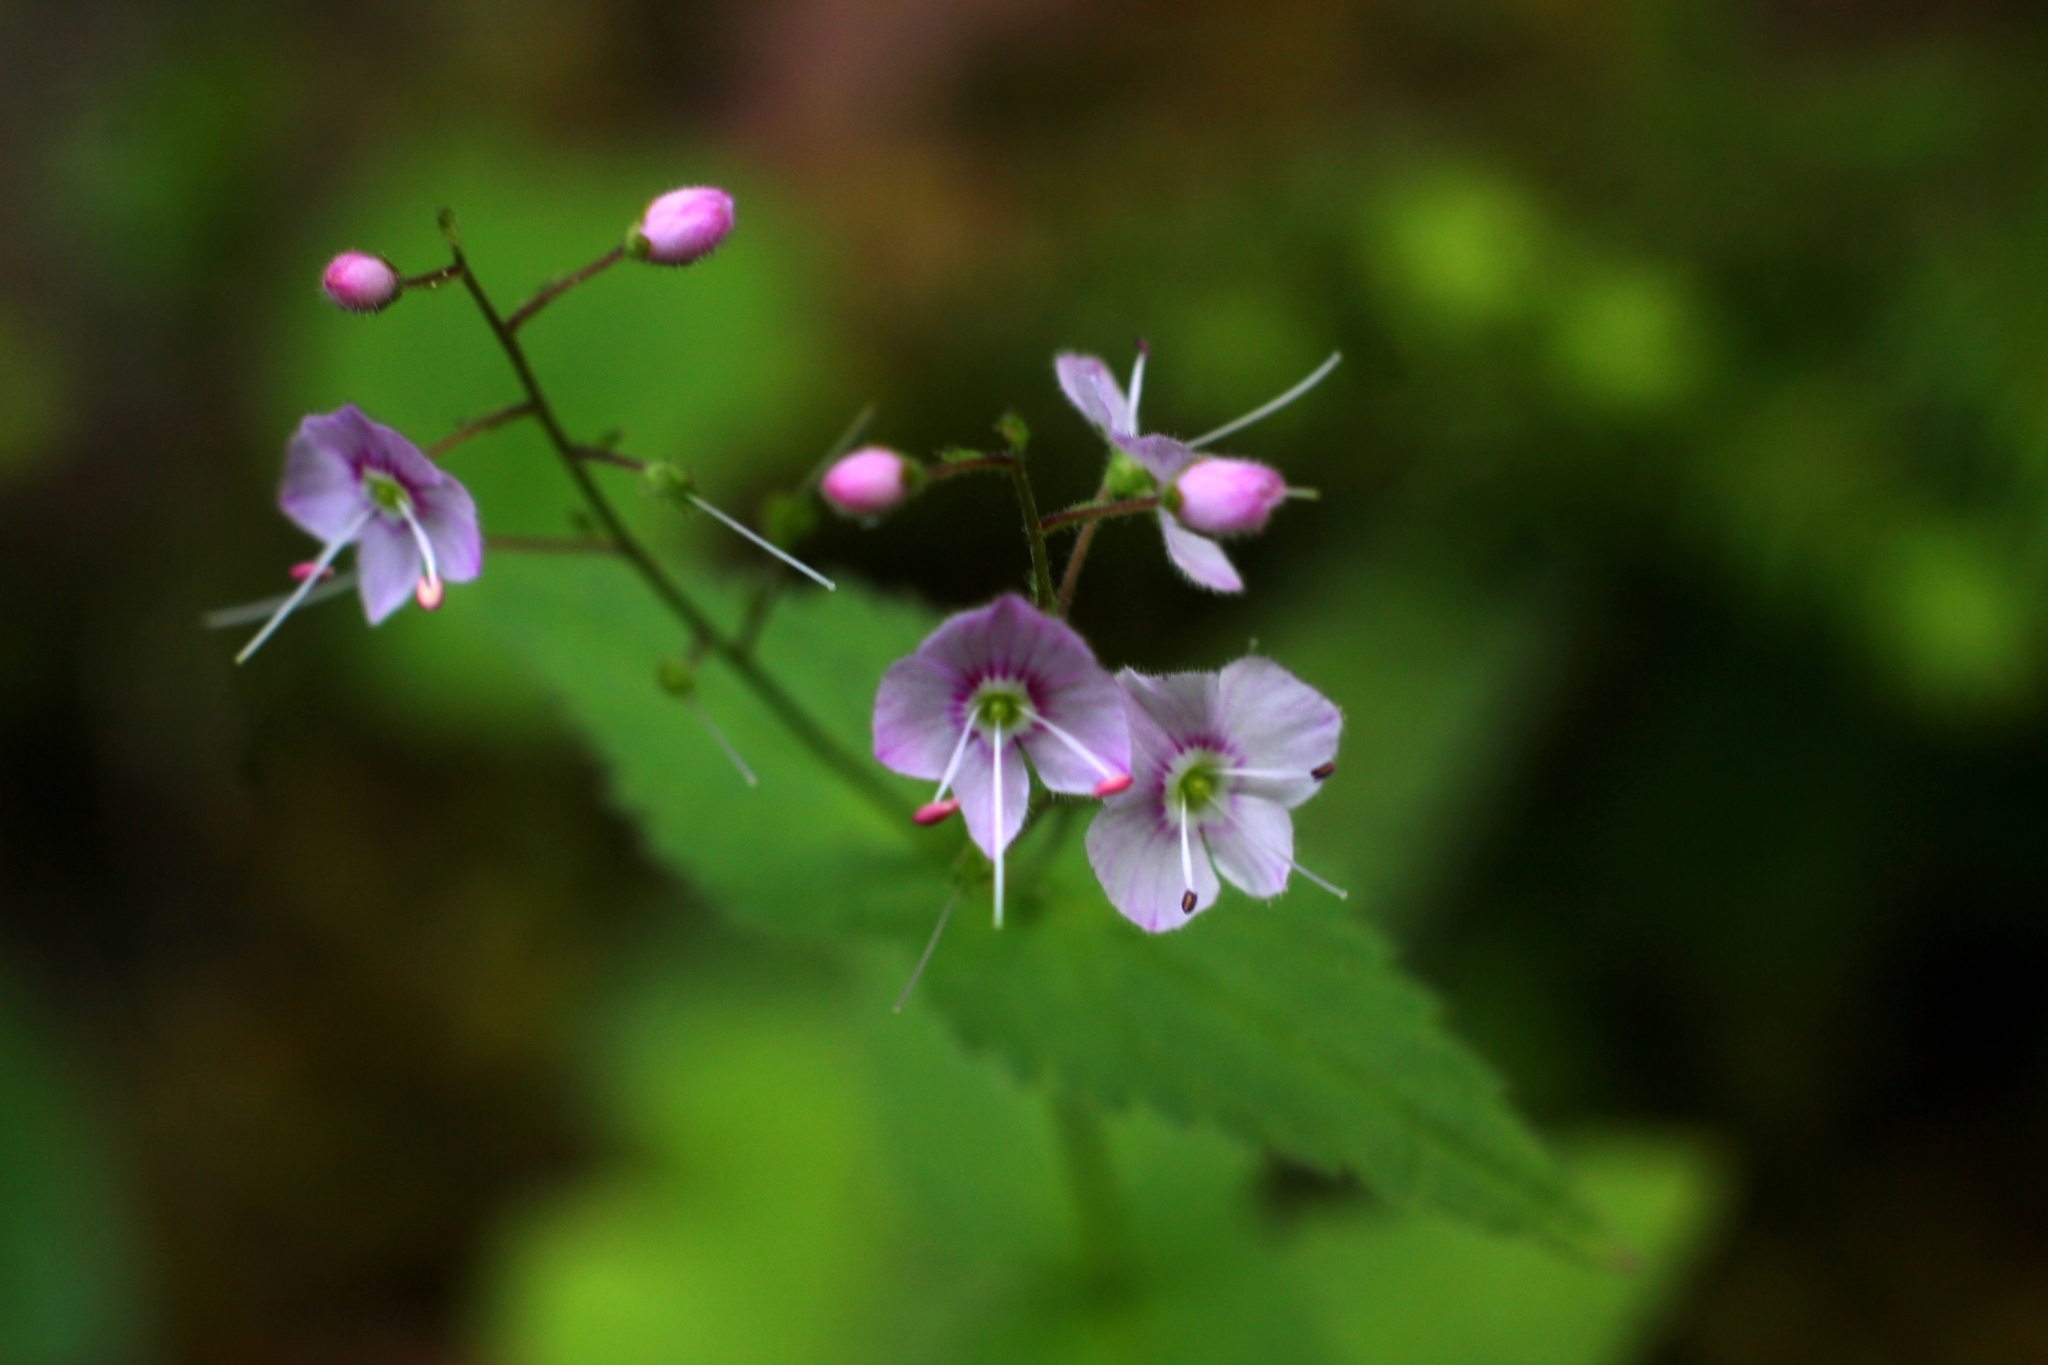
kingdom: Plantae
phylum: Tracheophyta
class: Magnoliopsida
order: Lamiales
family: Plantaginaceae
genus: Veronica
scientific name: Veronica urticifolia
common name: Nettle-leaf speedwell
